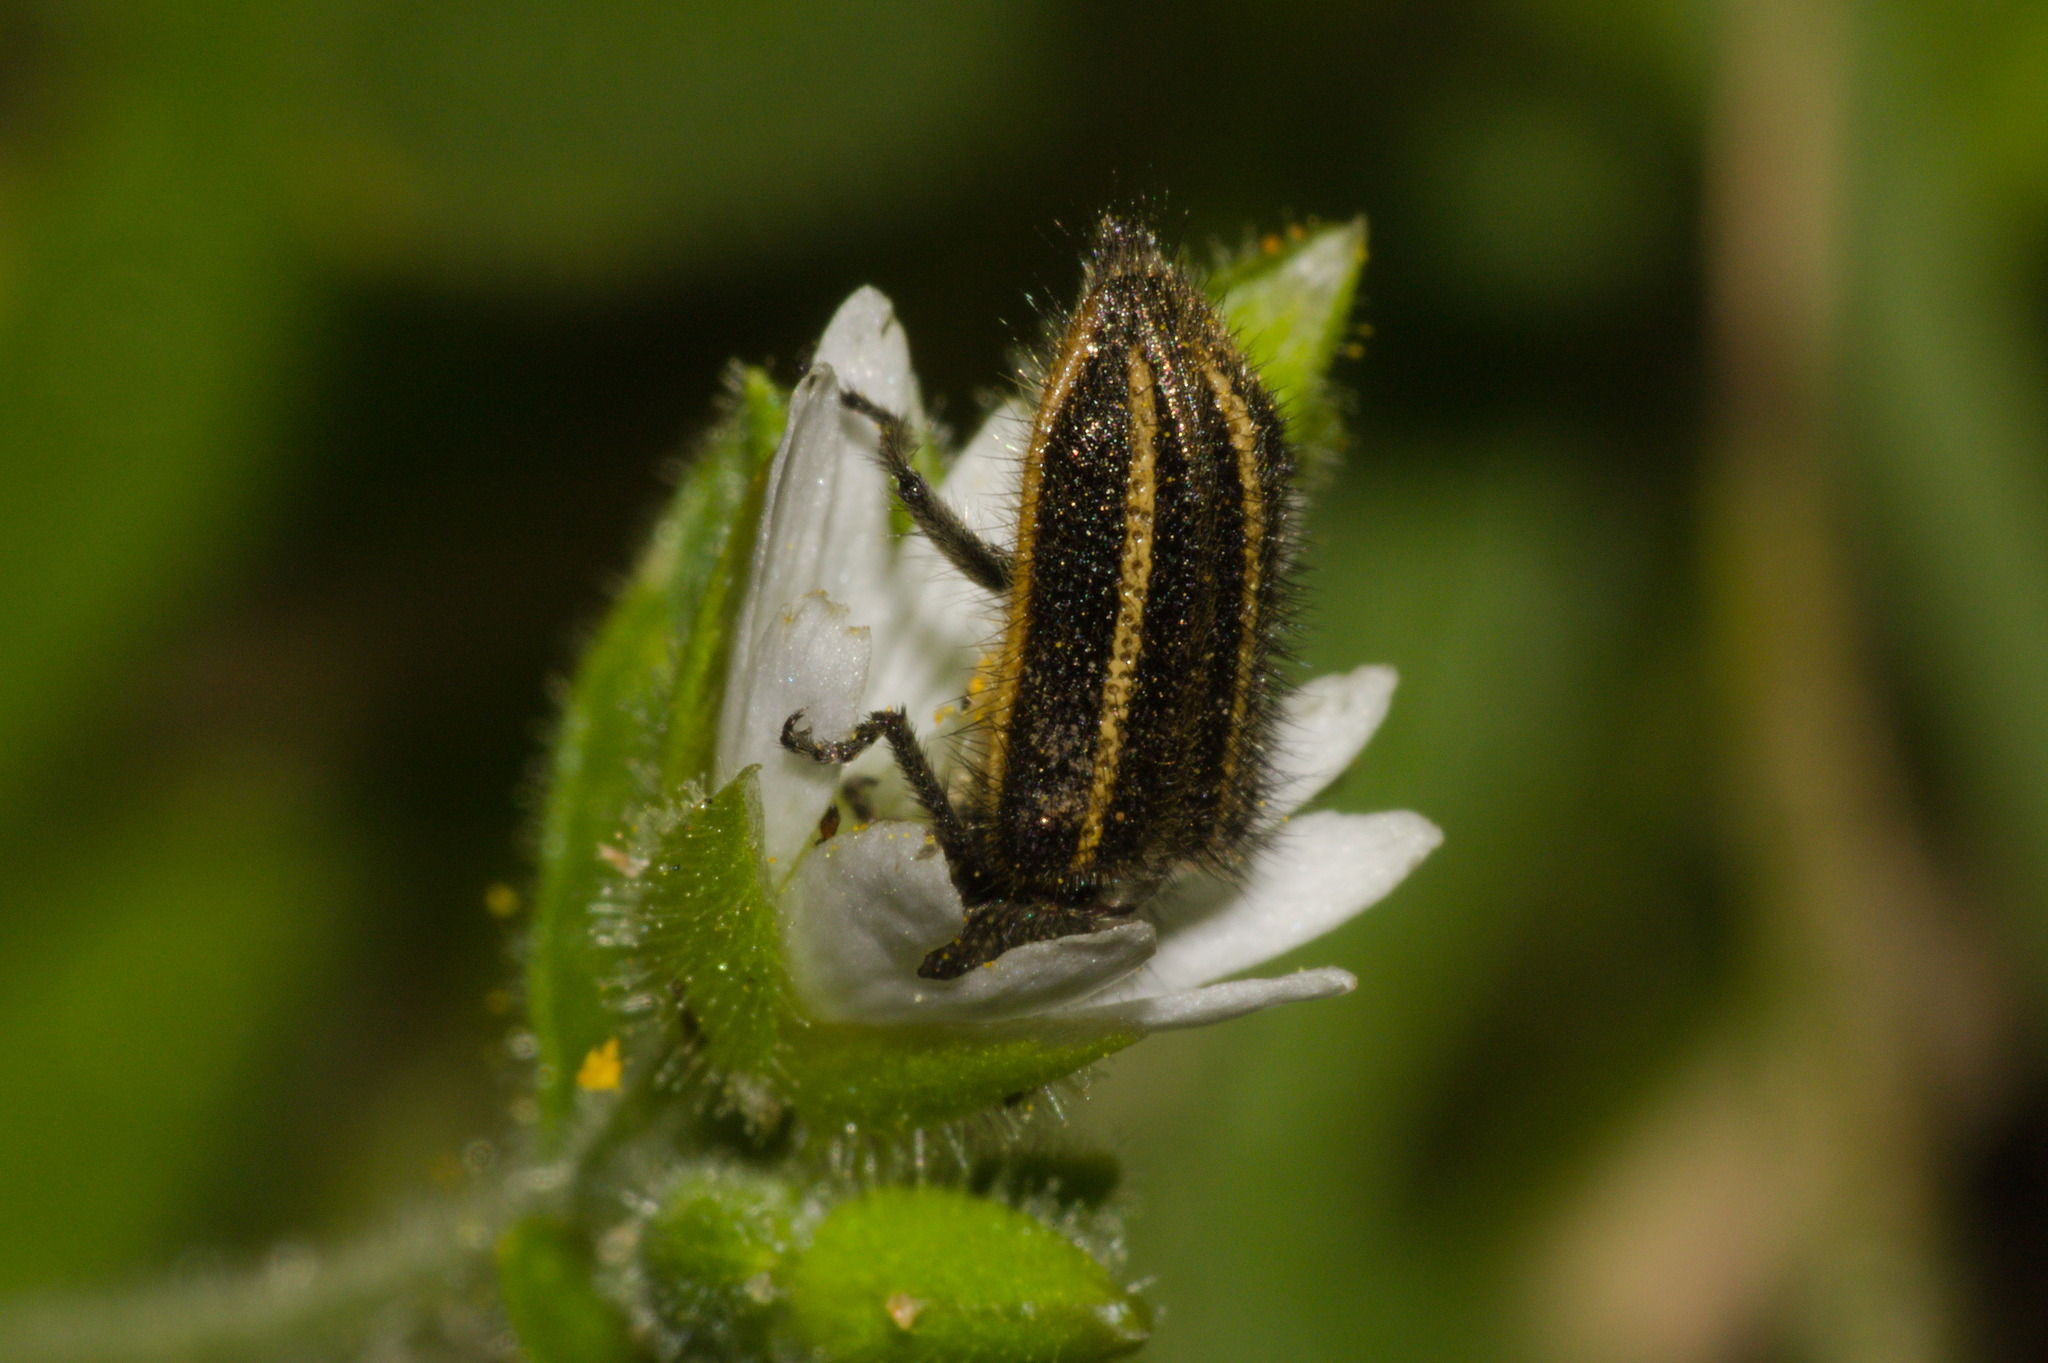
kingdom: Animalia
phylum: Arthropoda
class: Insecta
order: Coleoptera
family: Melyridae
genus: Astylus
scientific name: Astylus
